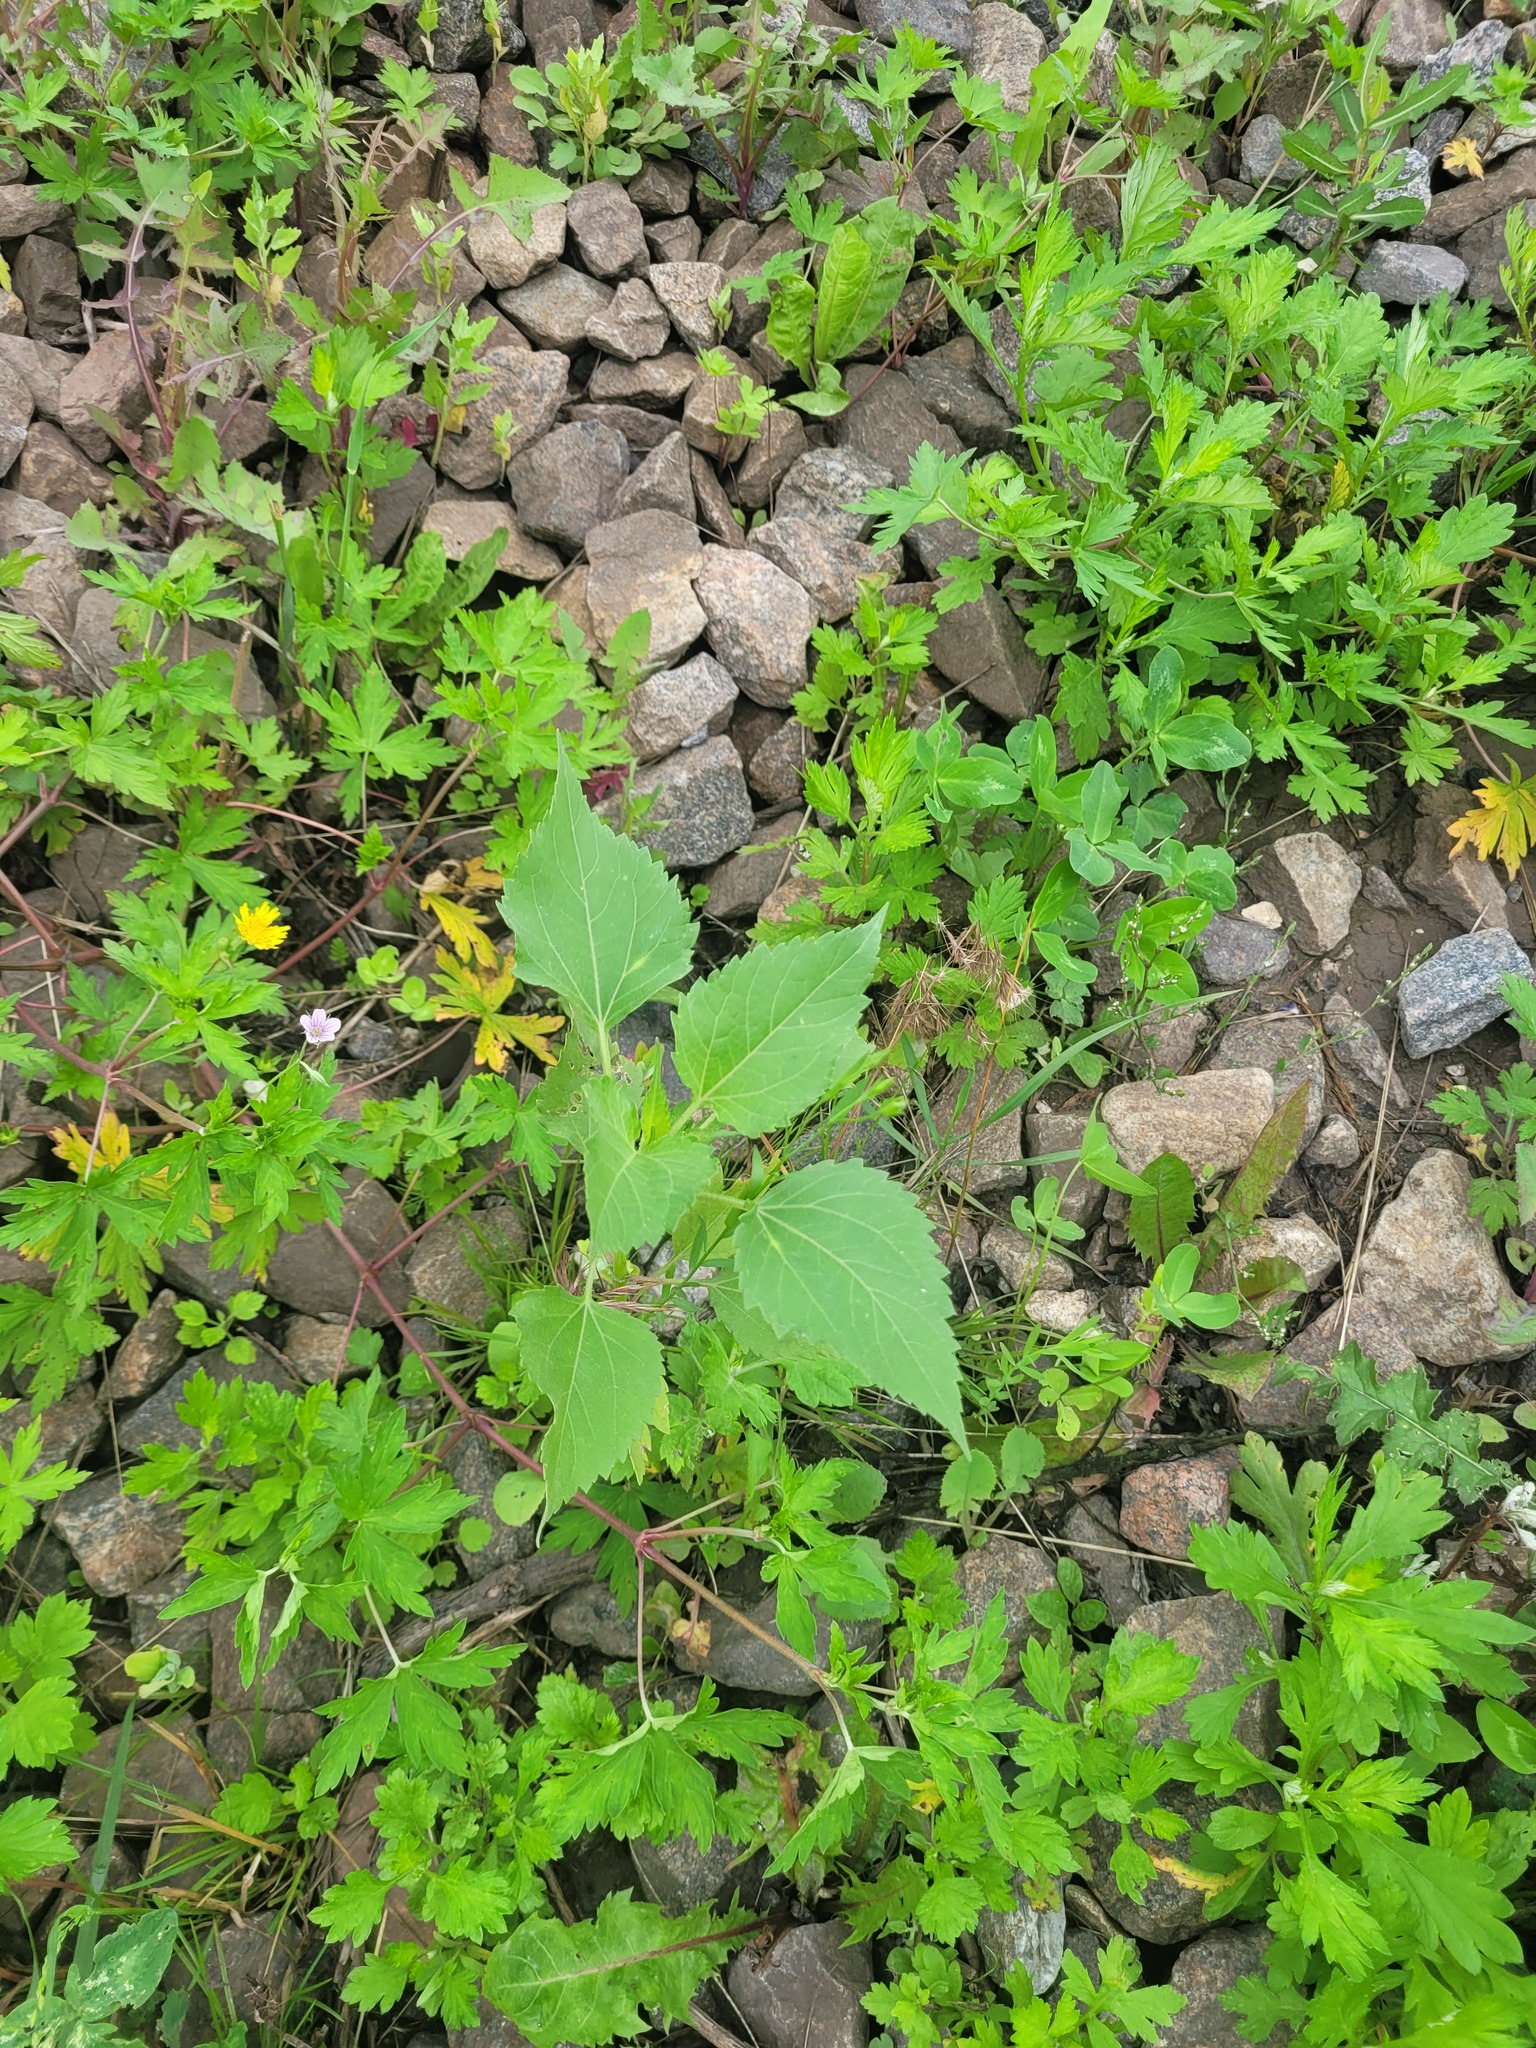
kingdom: Plantae
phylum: Tracheophyta
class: Magnoliopsida
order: Asterales
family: Asteraceae
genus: Cyclachaena
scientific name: Cyclachaena xanthiifolia
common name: Giant sumpweed
